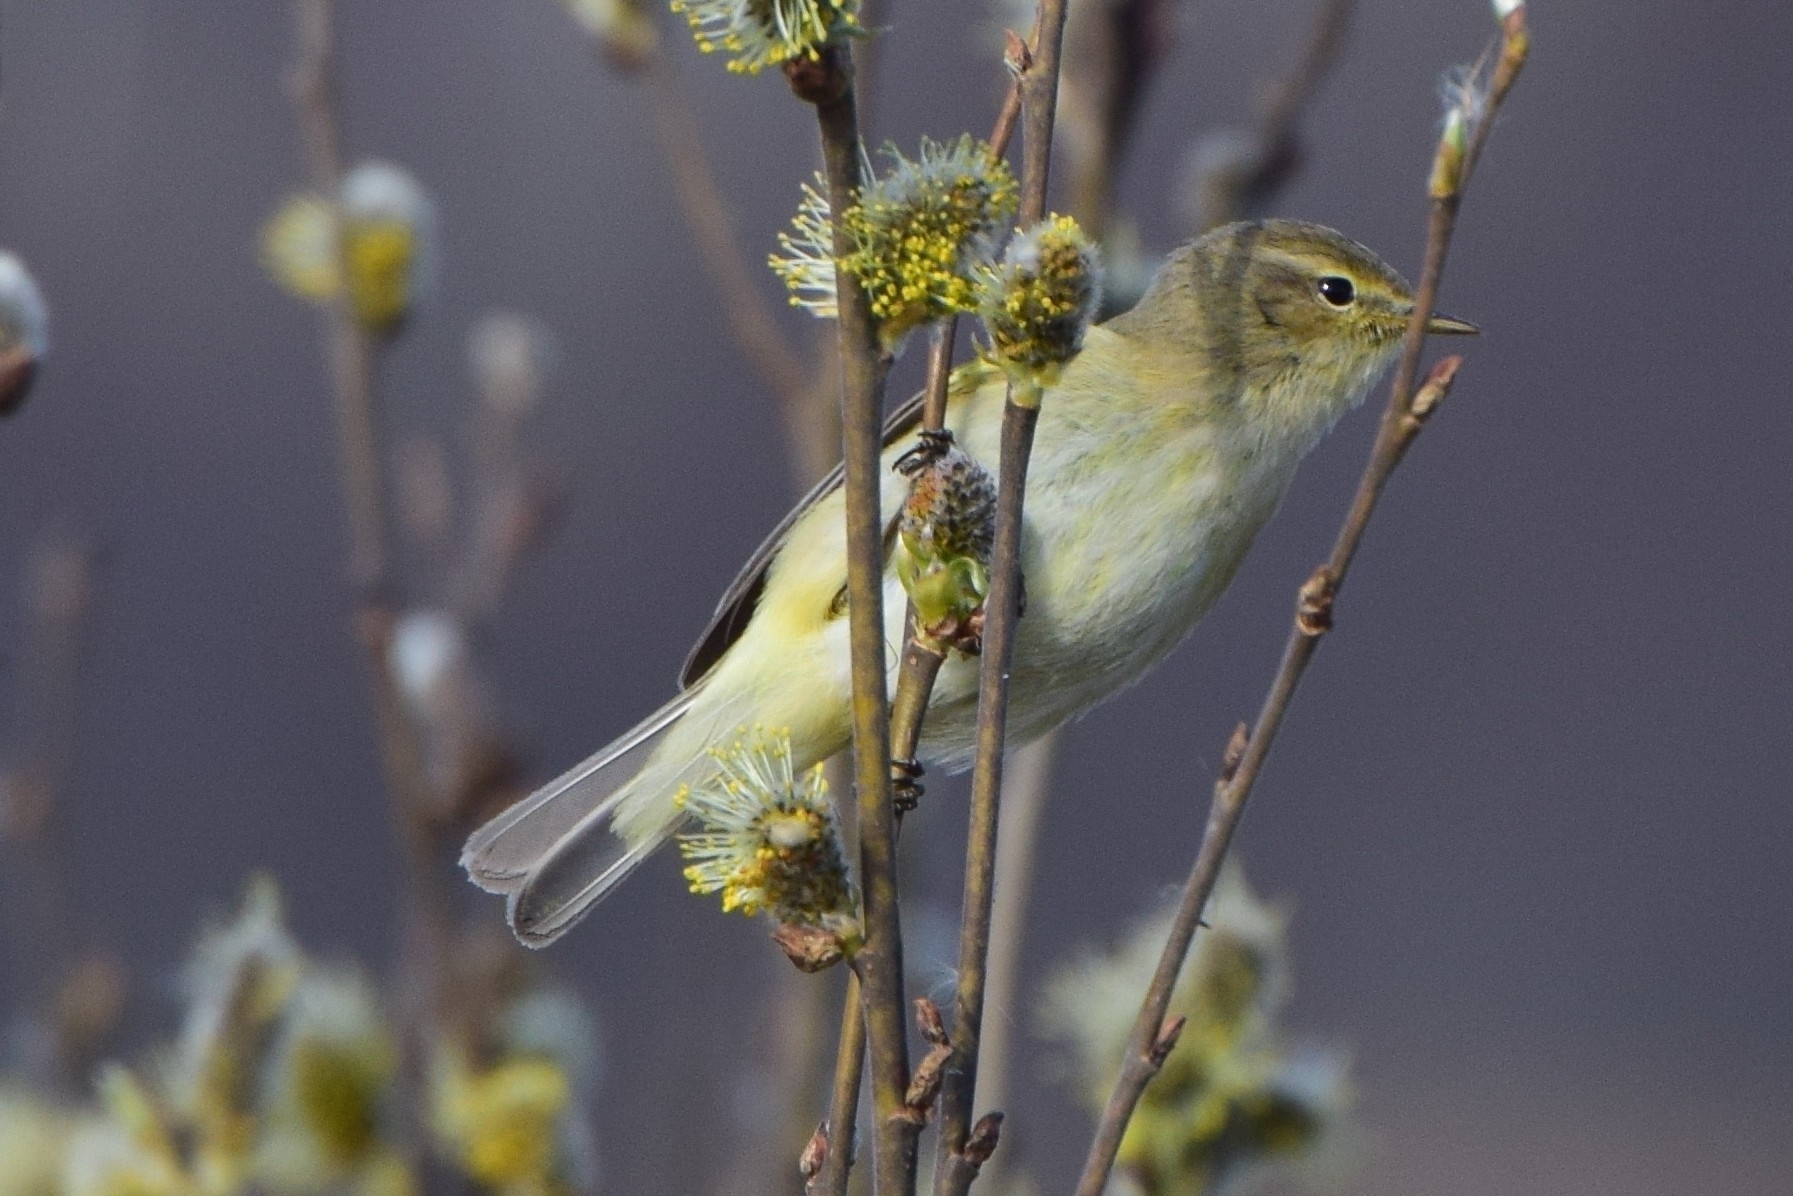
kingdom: Animalia
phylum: Chordata
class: Aves
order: Passeriformes
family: Phylloscopidae
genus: Phylloscopus
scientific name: Phylloscopus collybita
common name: Common chiffchaff
